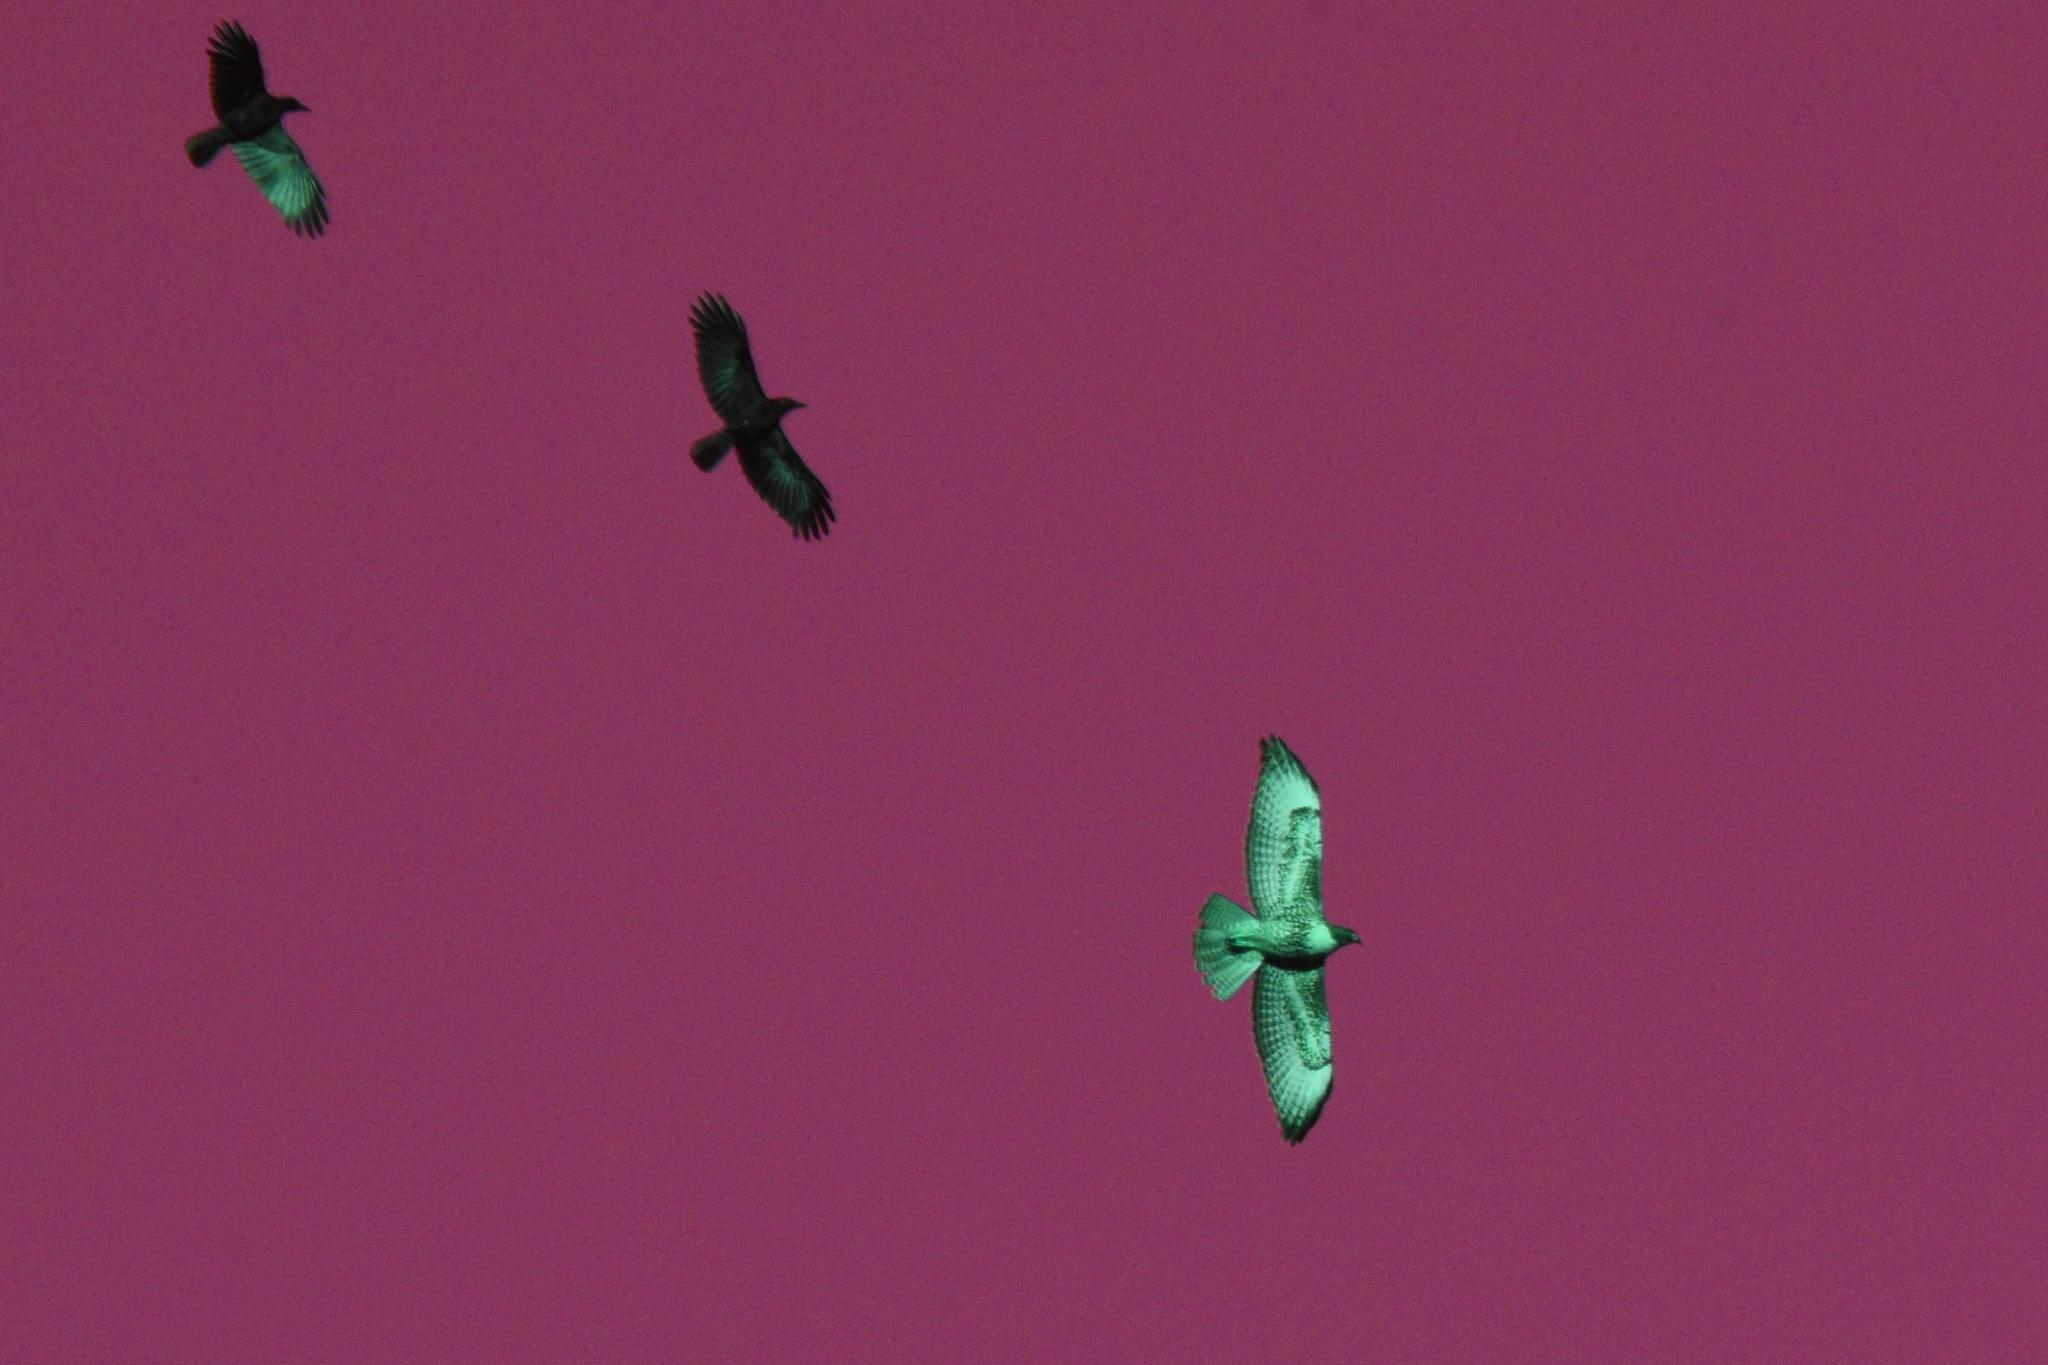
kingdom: Animalia
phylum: Chordata
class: Aves
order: Accipitriformes
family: Accipitridae
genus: Buteo
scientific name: Buteo jamaicensis
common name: Red-tailed hawk
